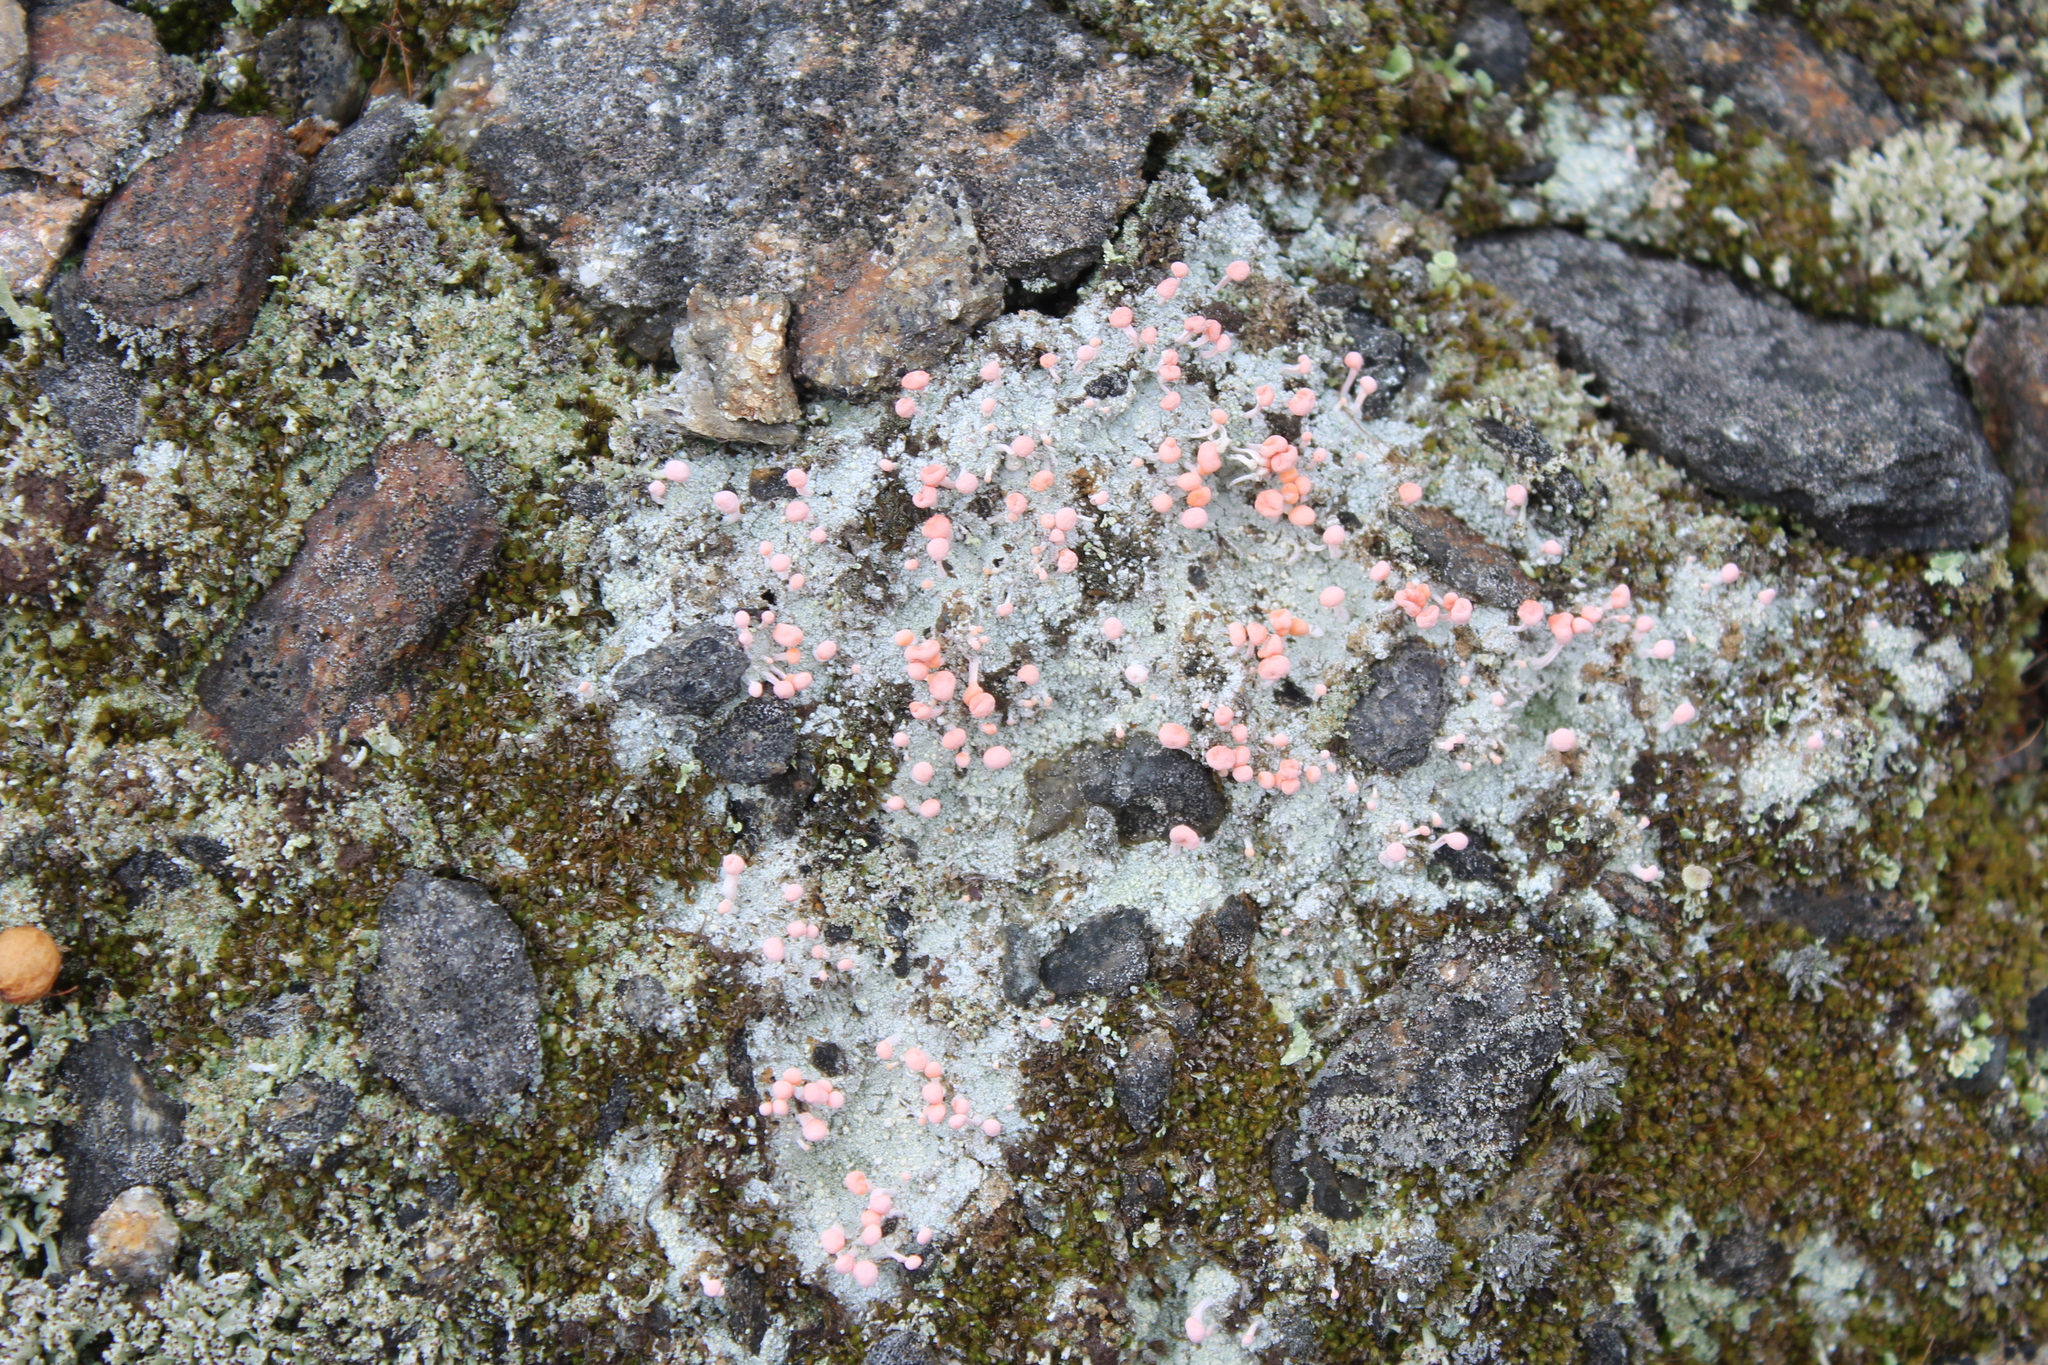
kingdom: Fungi
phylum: Ascomycota
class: Lecanoromycetes
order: Pertusariales
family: Icmadophilaceae
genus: Dibaeis
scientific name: Dibaeis baeomyces
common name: Pink earth lichen
